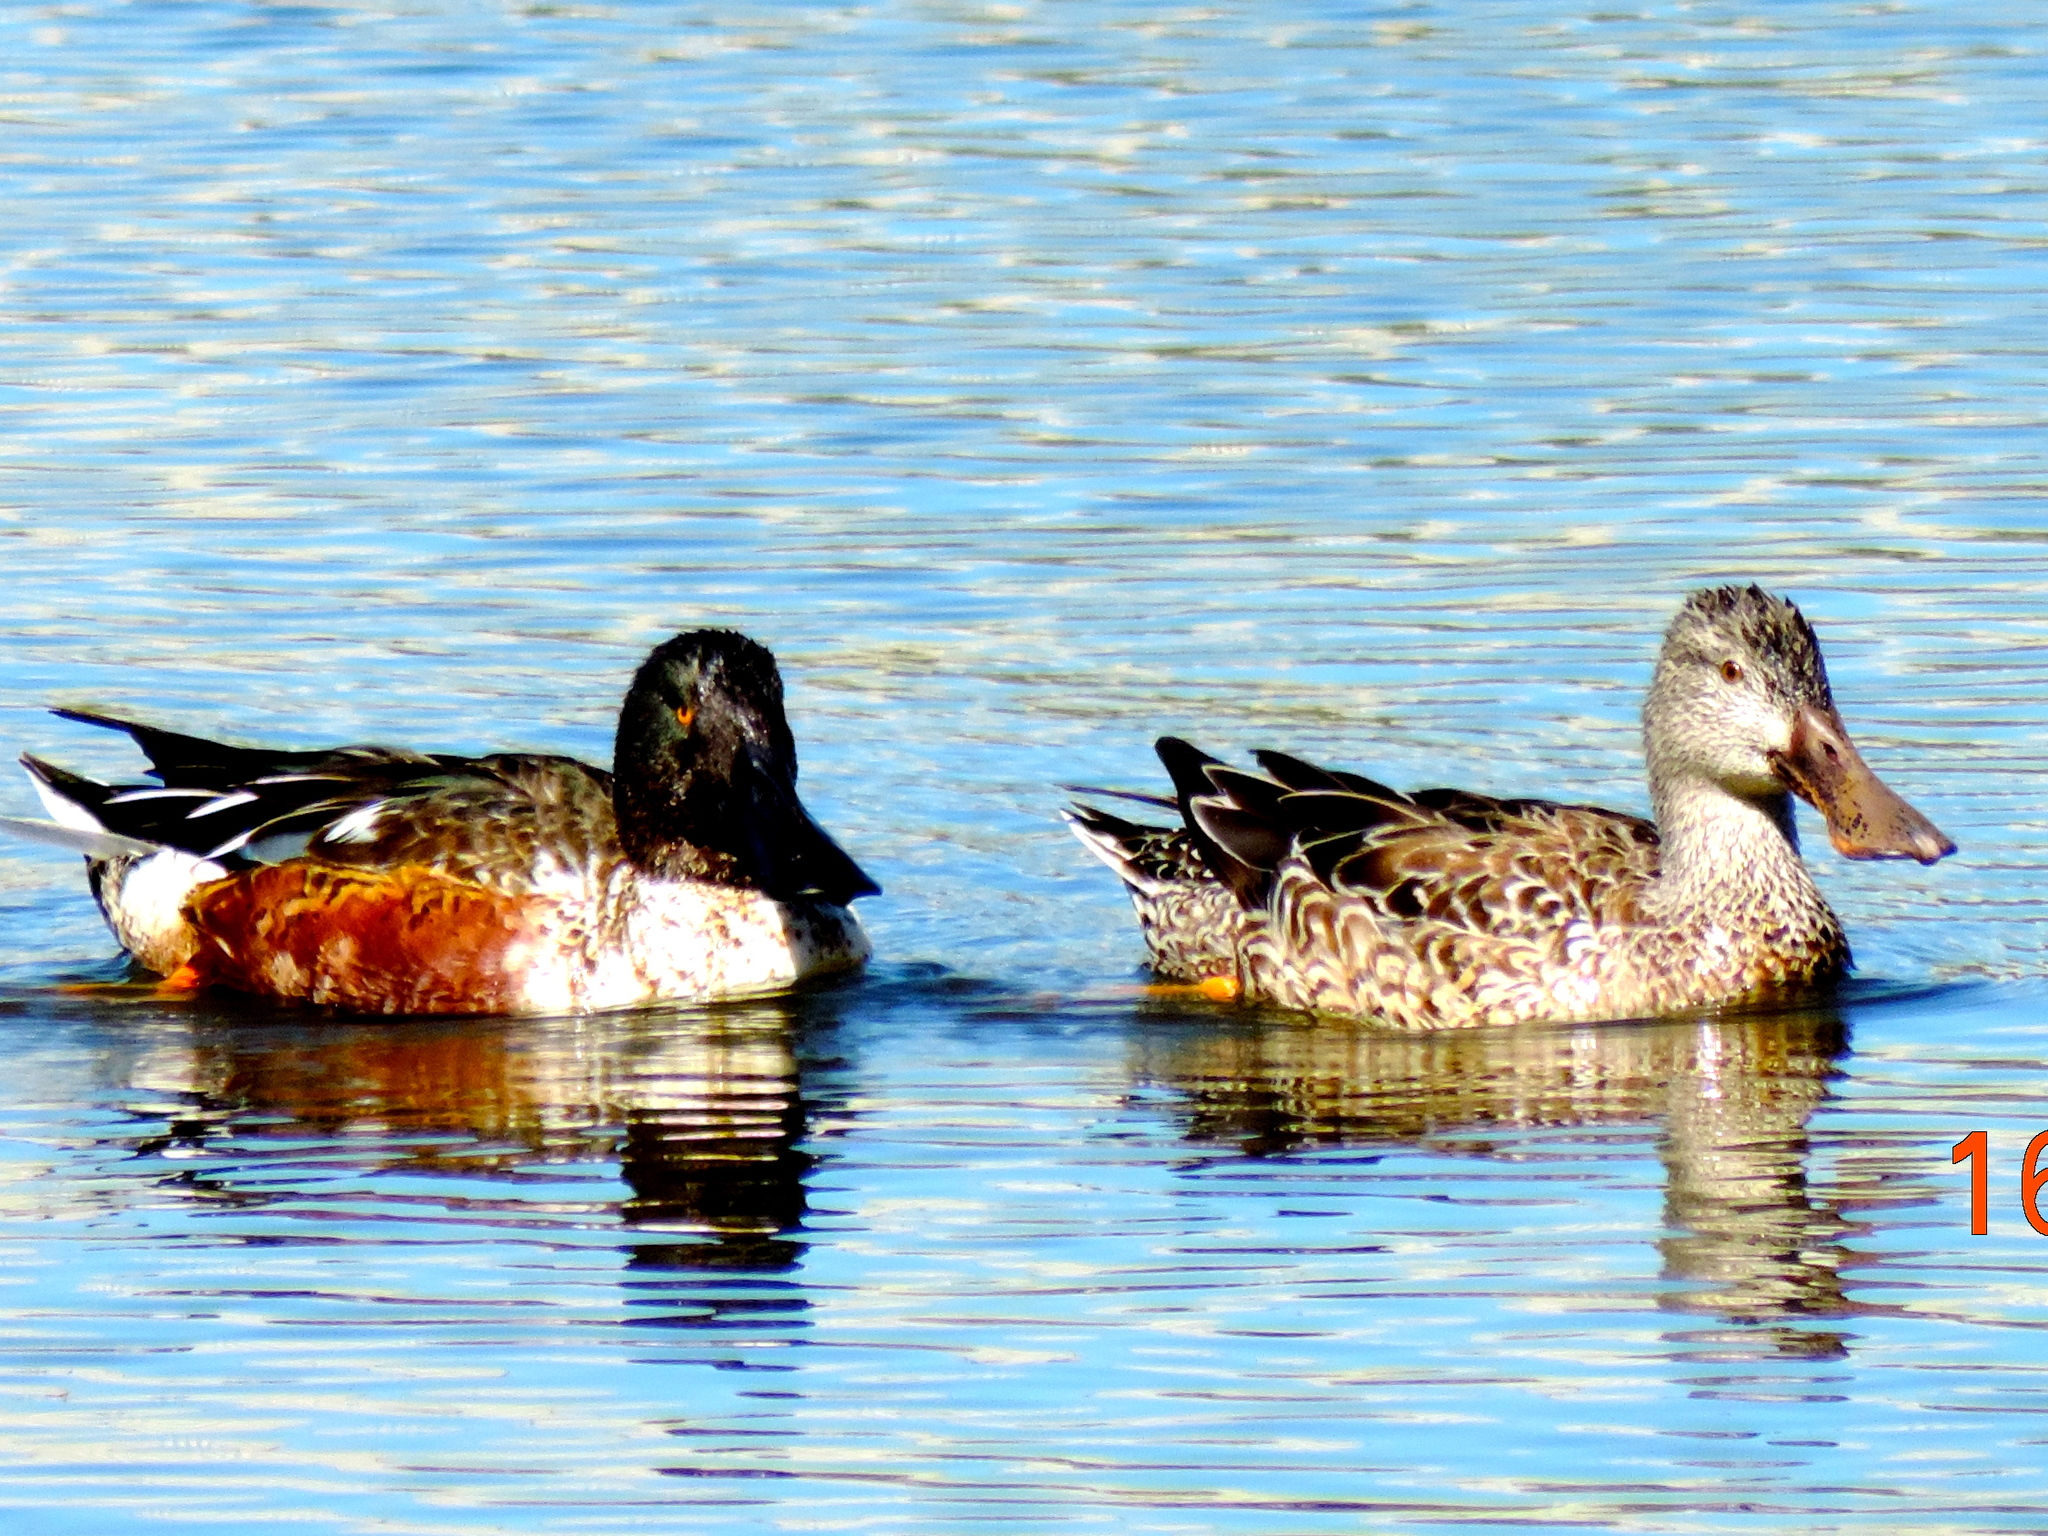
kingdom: Animalia
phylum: Chordata
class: Aves
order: Anseriformes
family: Anatidae
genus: Spatula
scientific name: Spatula clypeata
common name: Northern shoveler
